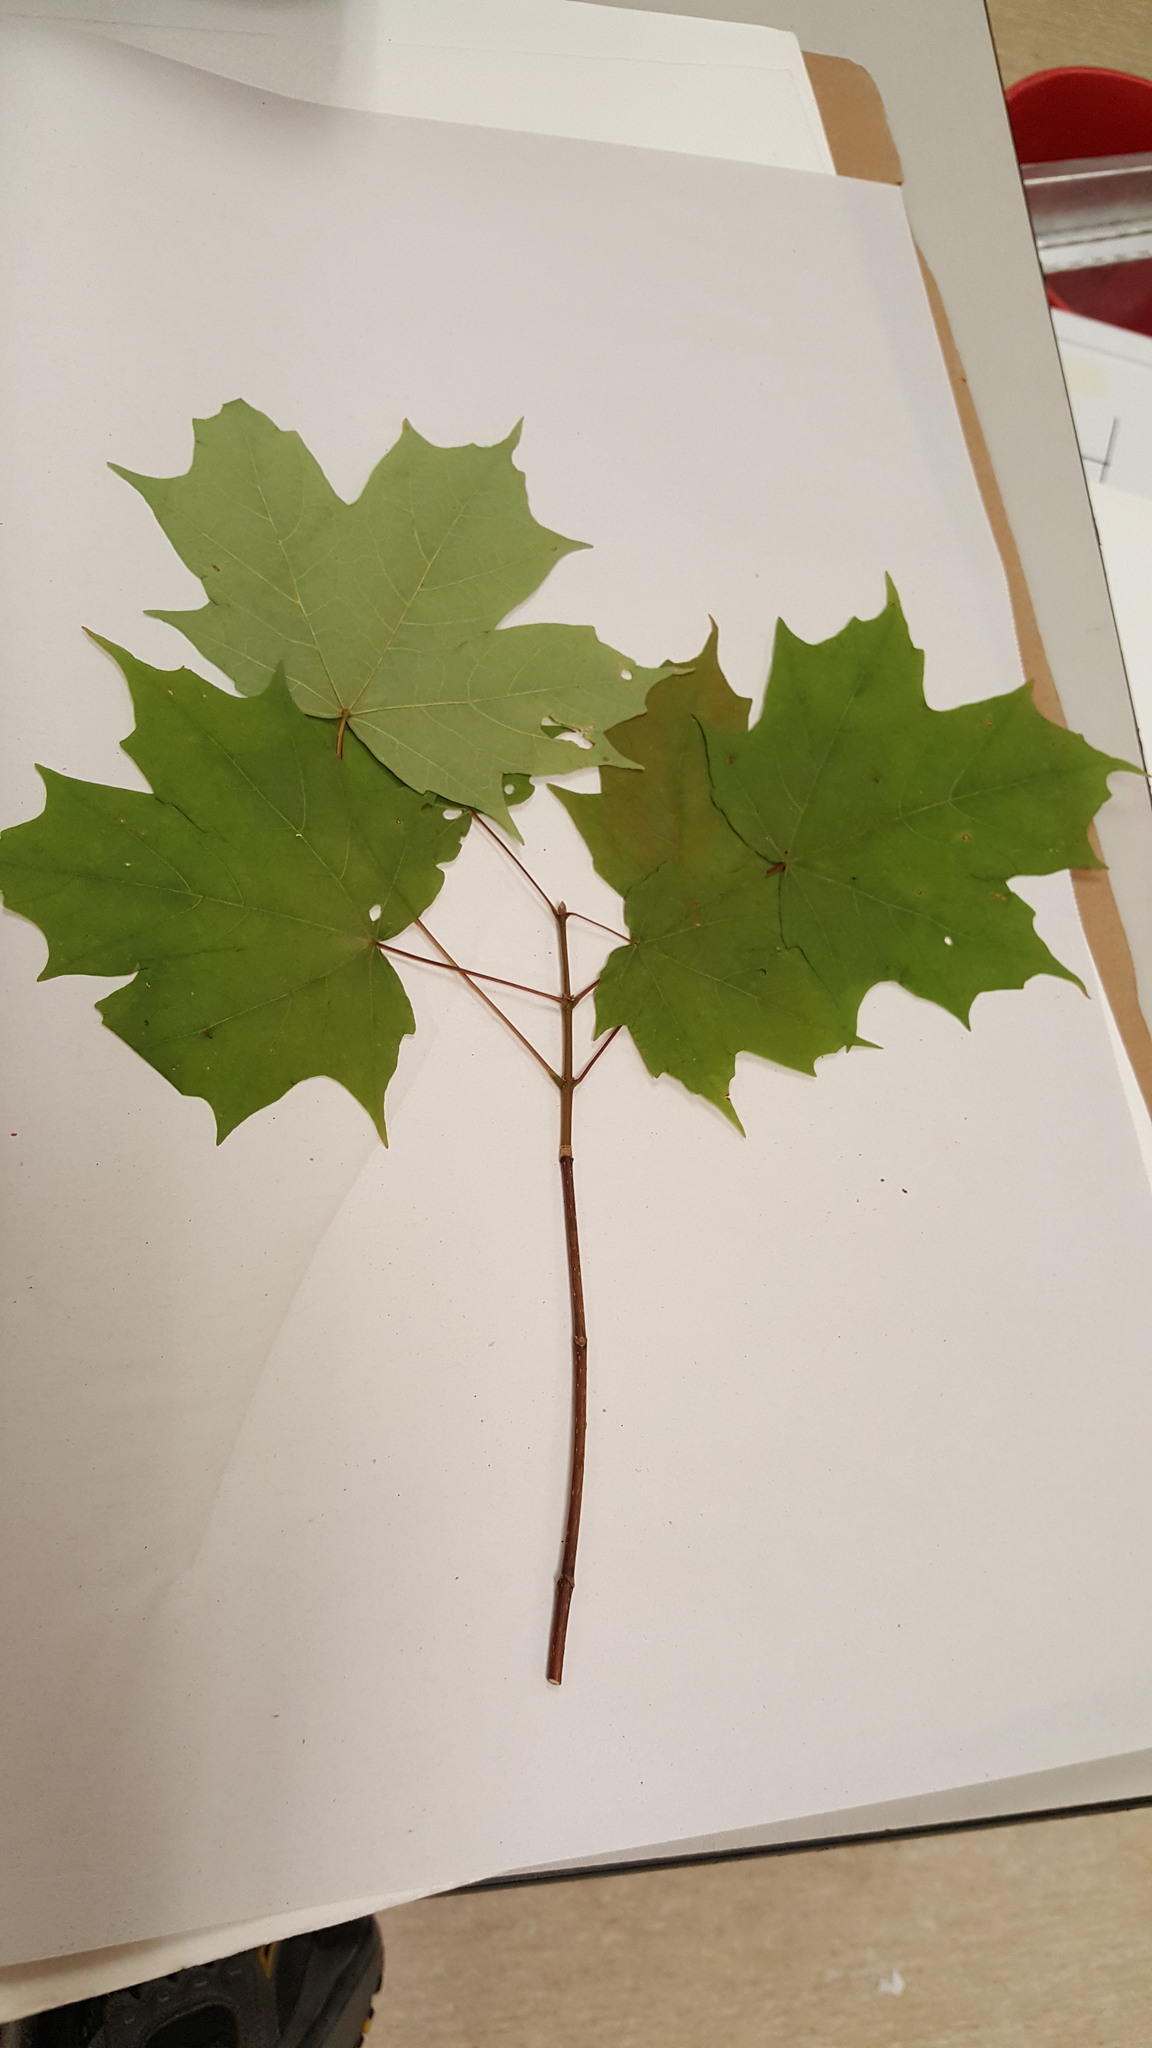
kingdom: Plantae
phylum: Tracheophyta
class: Magnoliopsida
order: Sapindales
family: Sapindaceae
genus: Acer
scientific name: Acer saccharum
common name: Sugar maple
